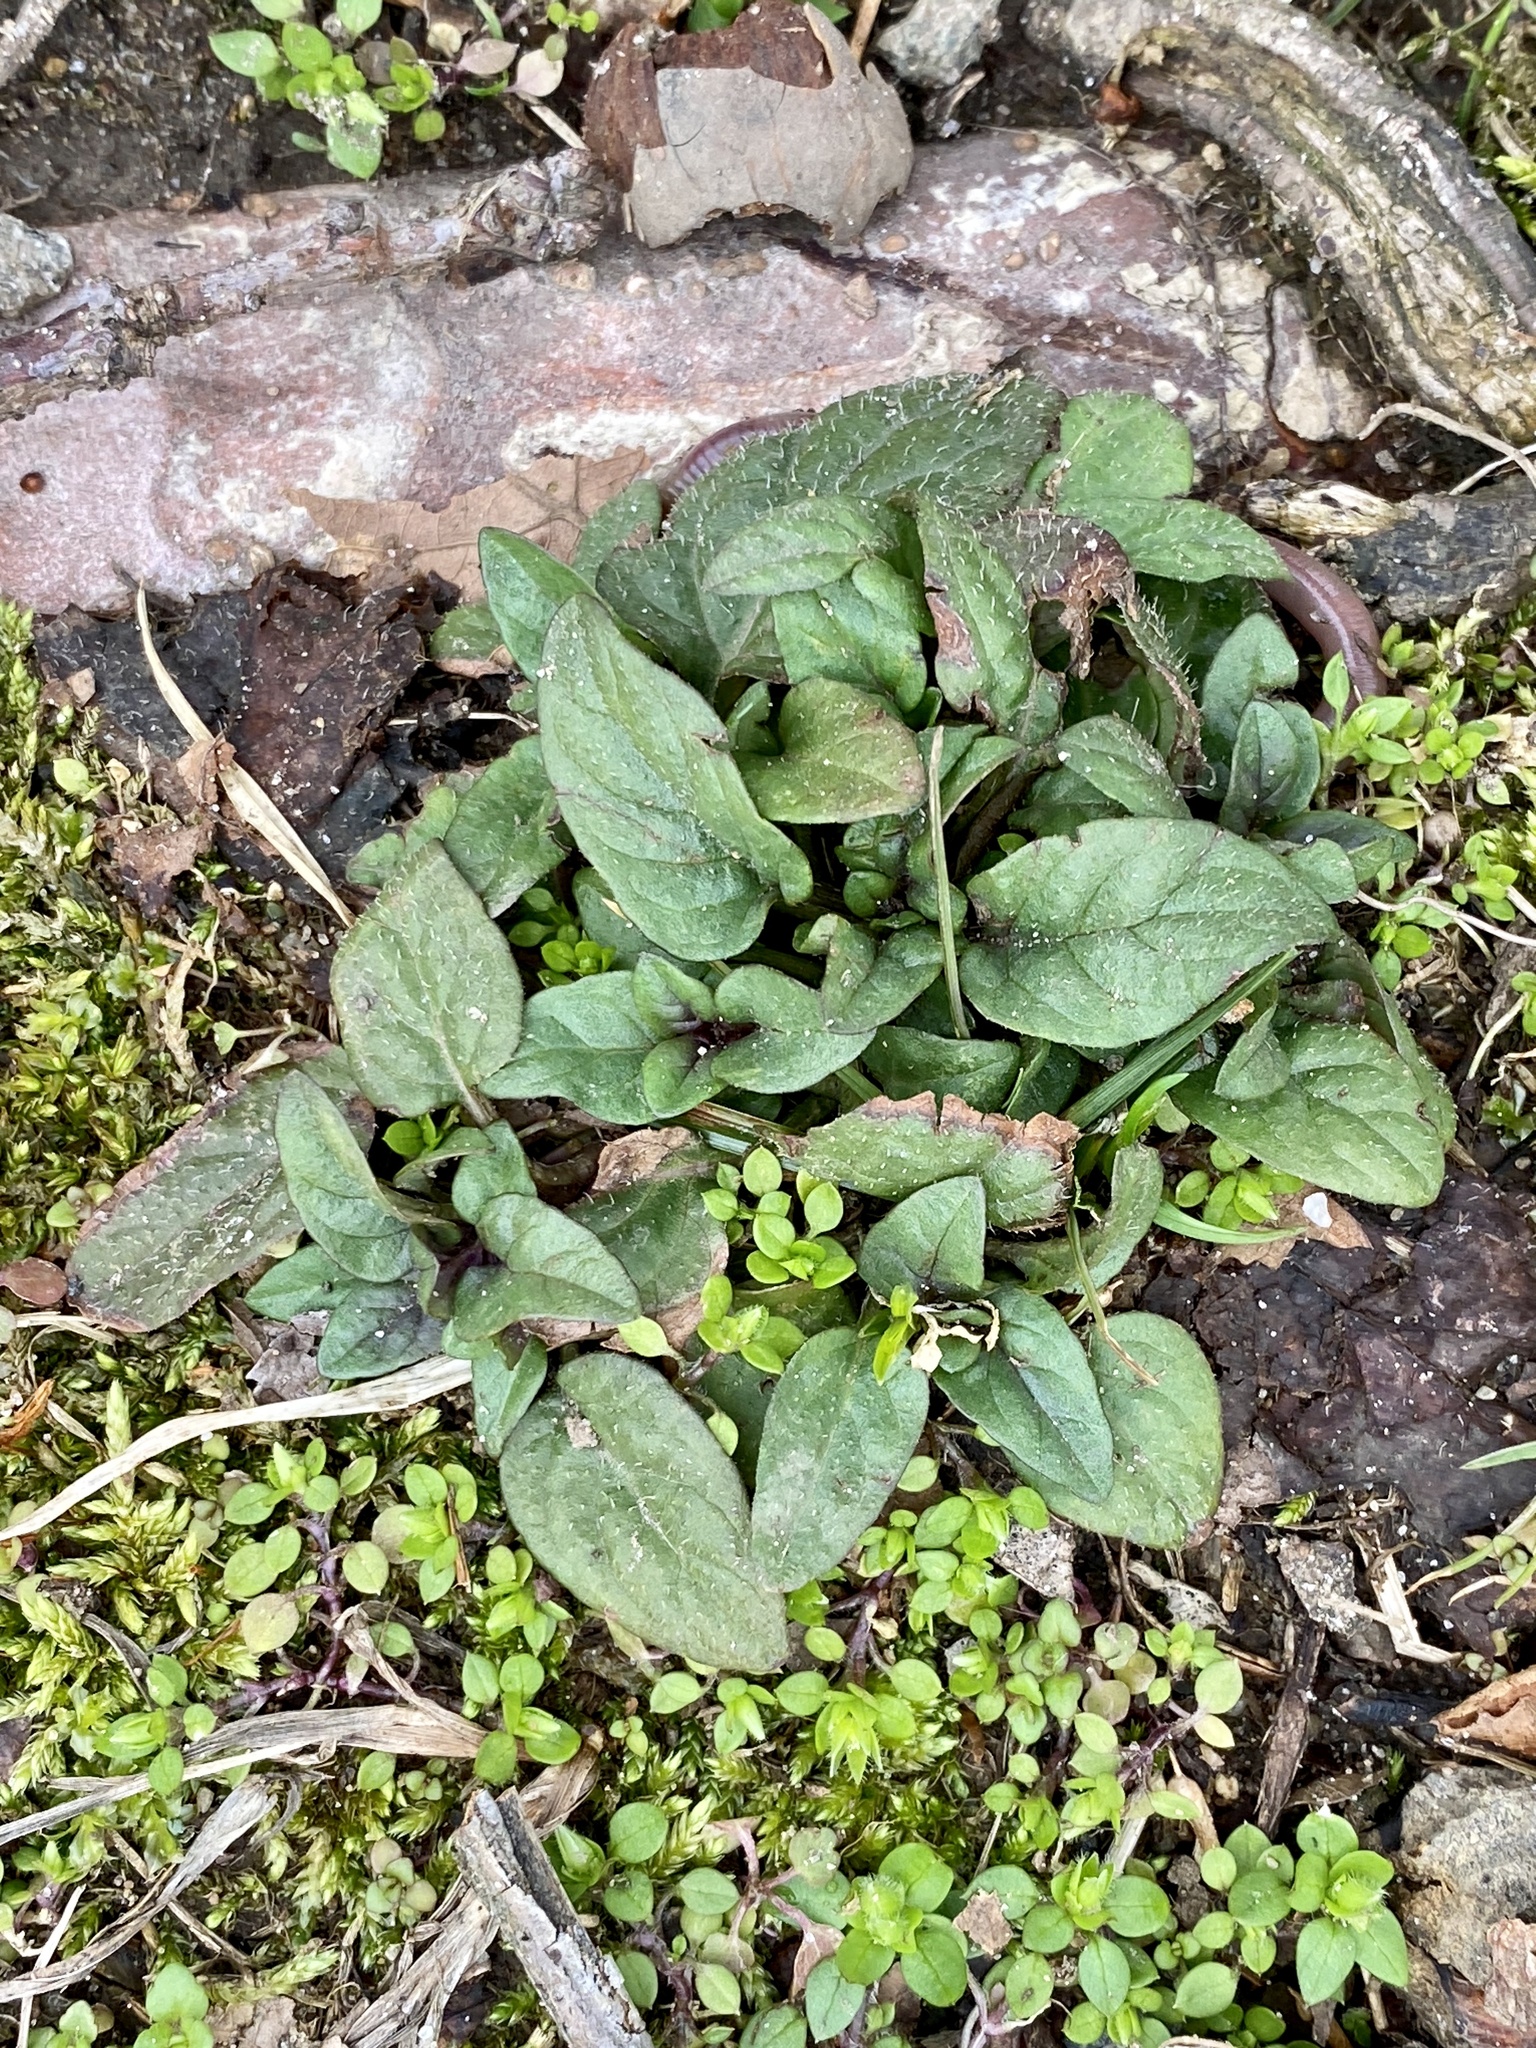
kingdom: Plantae
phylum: Tracheophyta
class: Magnoliopsida
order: Lamiales
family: Lamiaceae
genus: Prunella
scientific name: Prunella vulgaris
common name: Heal-all
